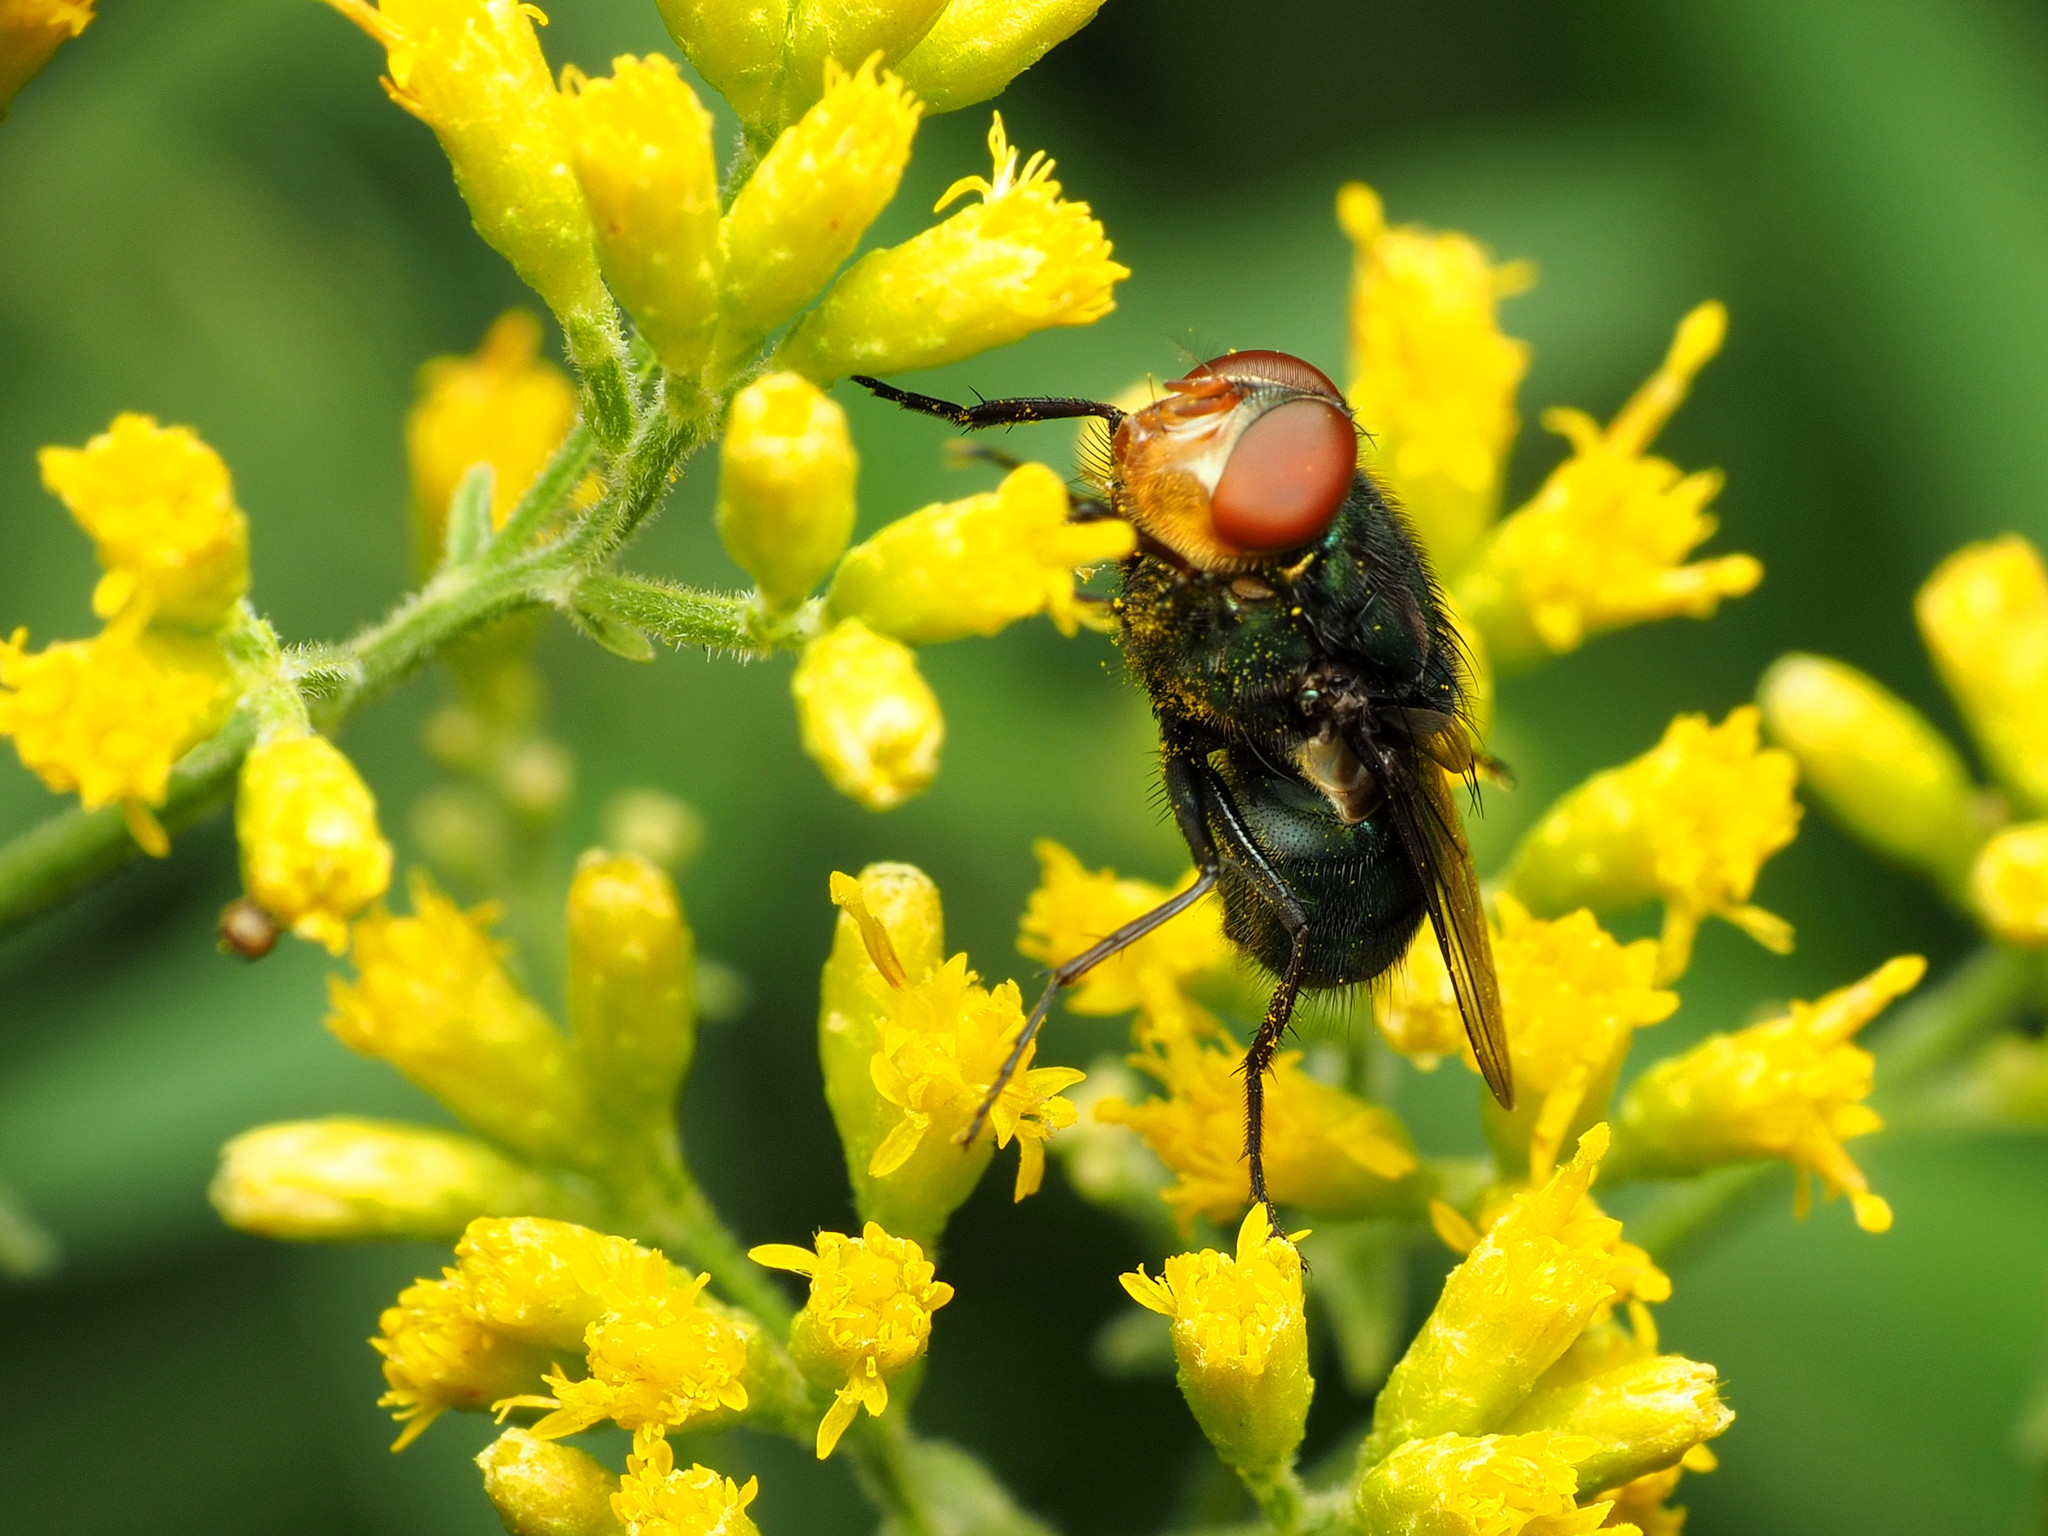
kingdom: Animalia
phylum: Arthropoda
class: Insecta
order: Diptera
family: Calliphoridae
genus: Cochliomyia
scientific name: Cochliomyia macellaria
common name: Secondary screwworm
